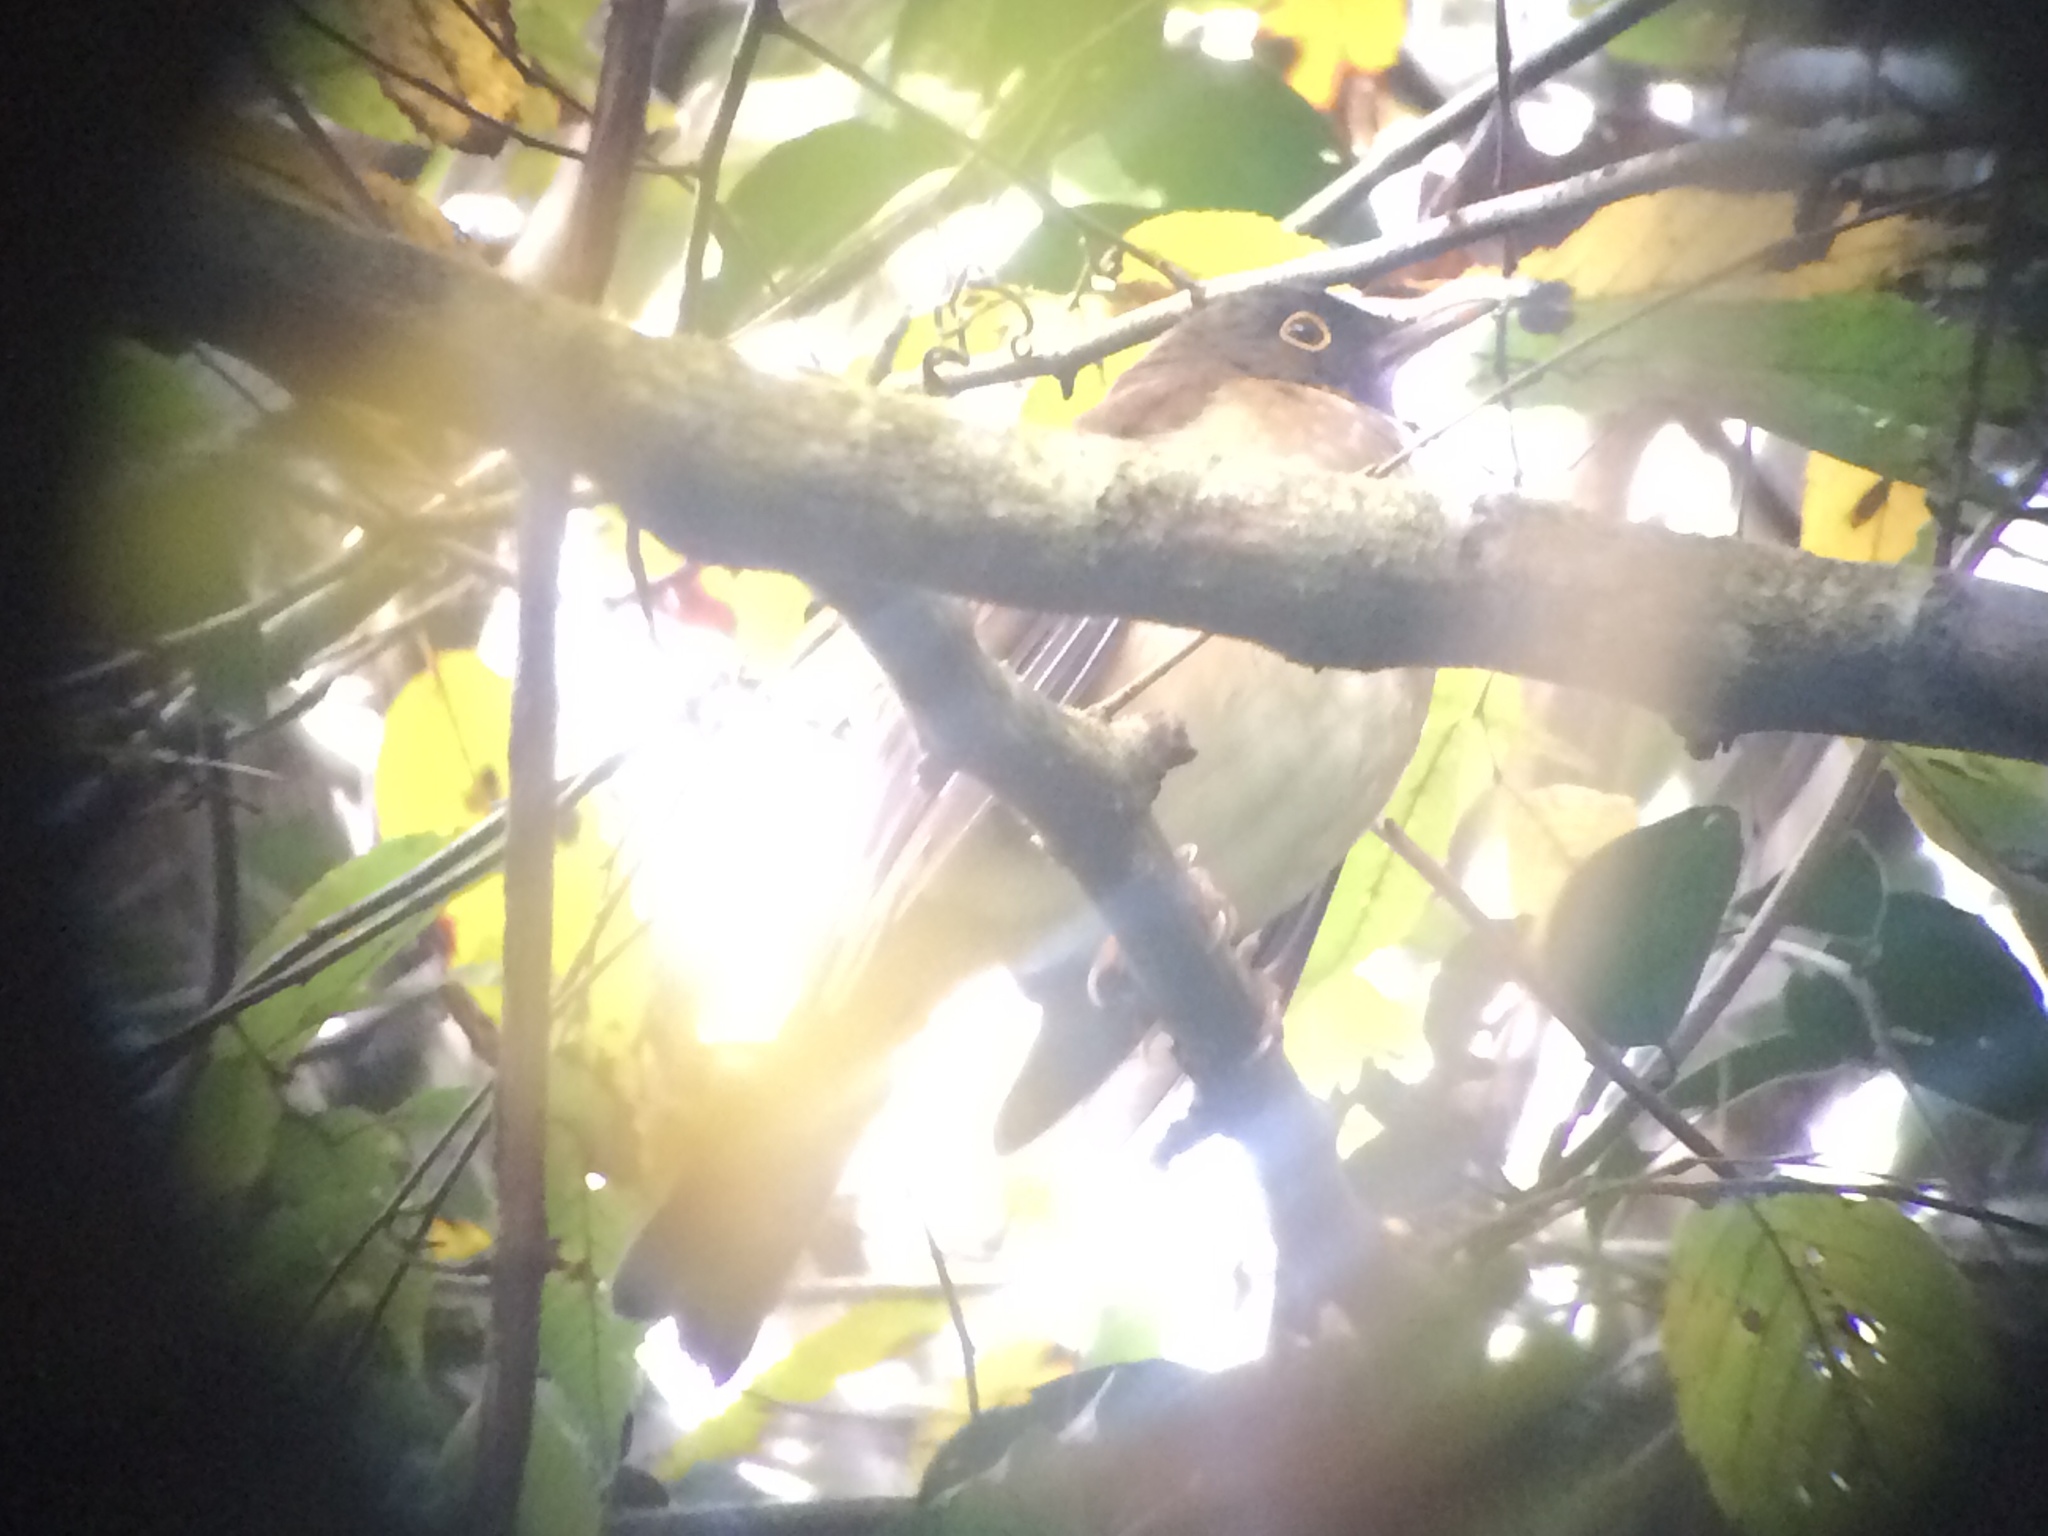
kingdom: Animalia
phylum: Chordata
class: Aves
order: Passeriformes
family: Turdidae
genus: Turdus
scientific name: Turdus assimilis
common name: White-throated thrush
